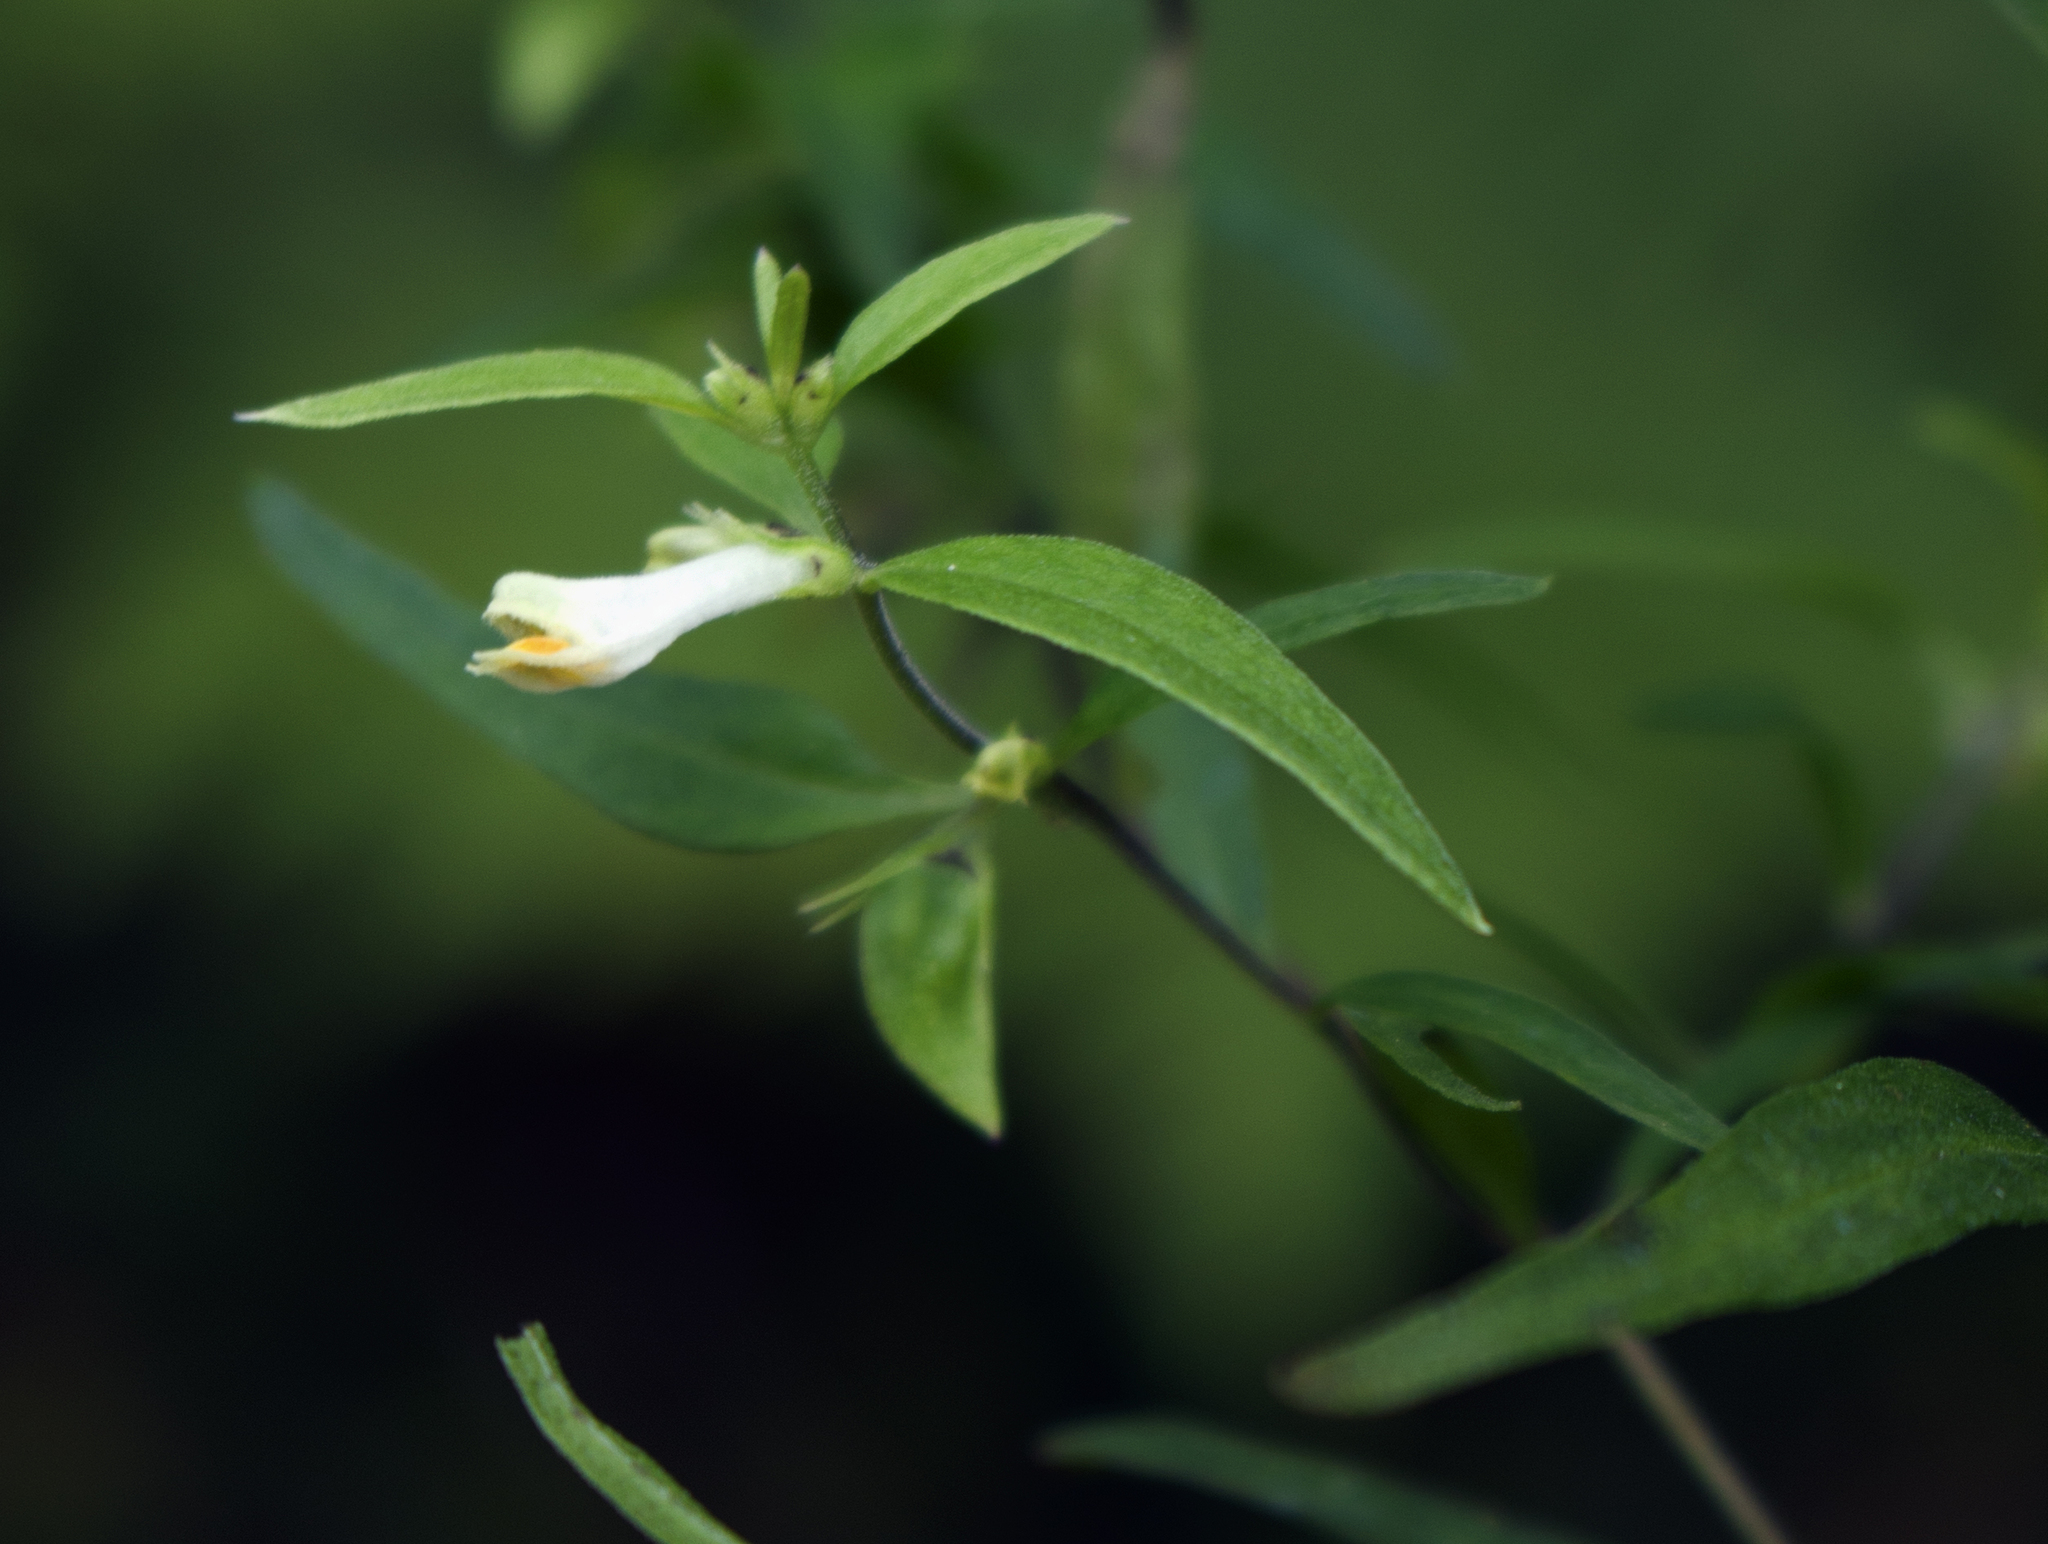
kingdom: Plantae
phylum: Tracheophyta
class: Magnoliopsida
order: Lamiales
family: Orobanchaceae
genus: Melampyrum
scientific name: Melampyrum lineare
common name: American cow-wheat
